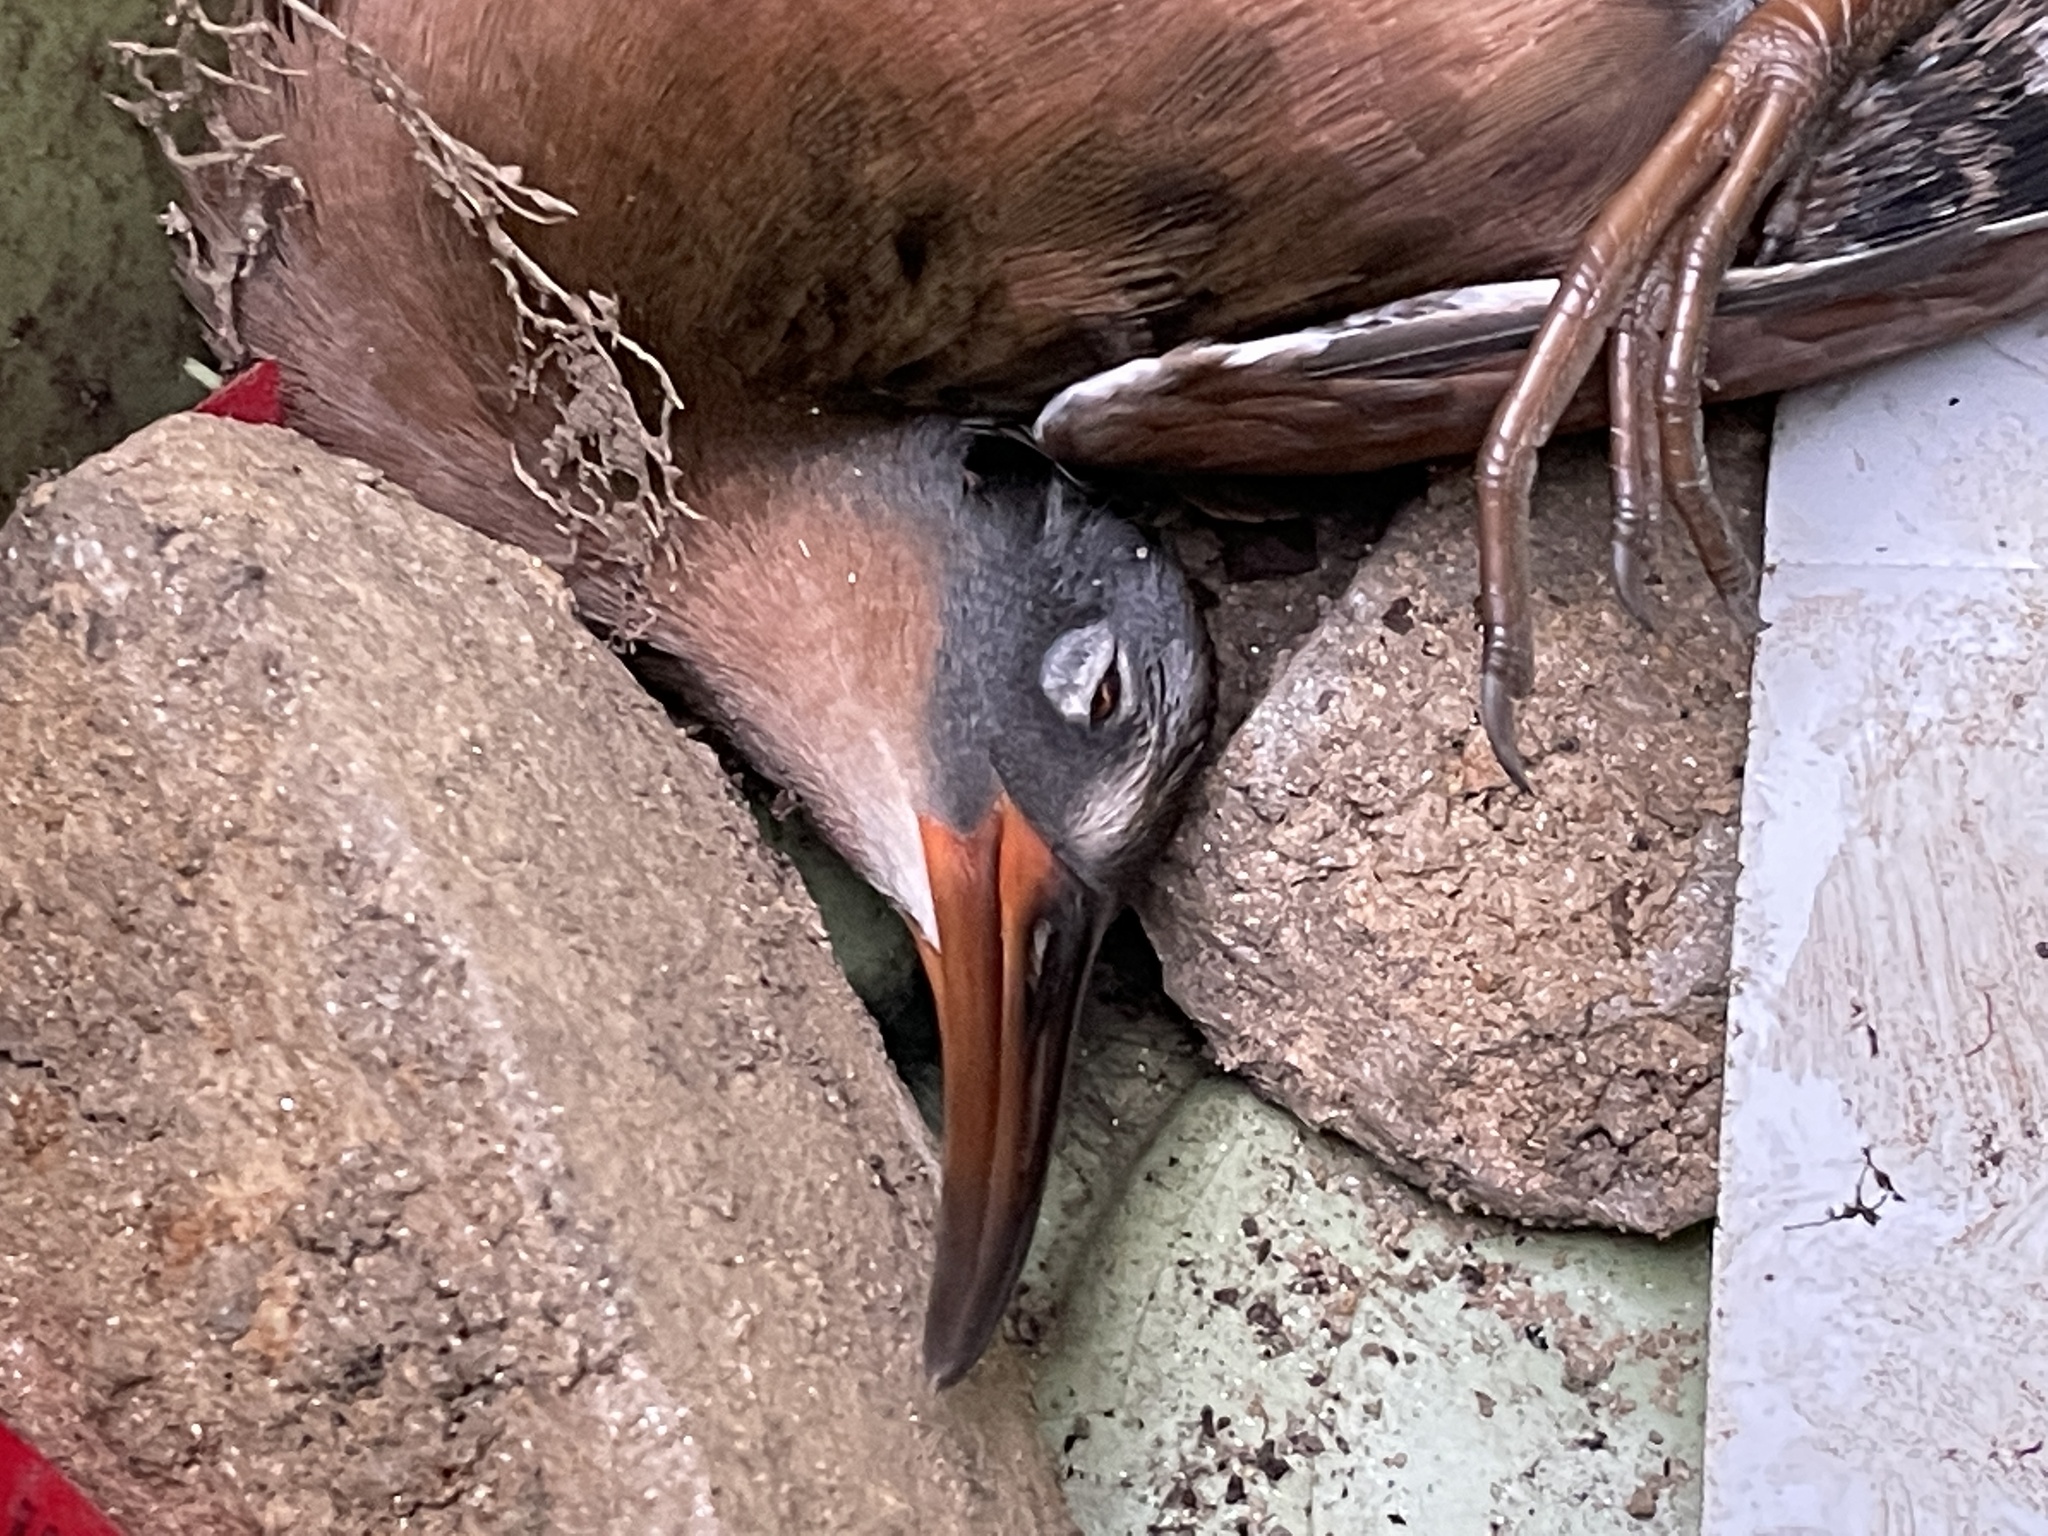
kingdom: Animalia
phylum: Chordata
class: Aves
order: Gruiformes
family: Rallidae
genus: Rallus
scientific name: Rallus limicola
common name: Virginia rail
